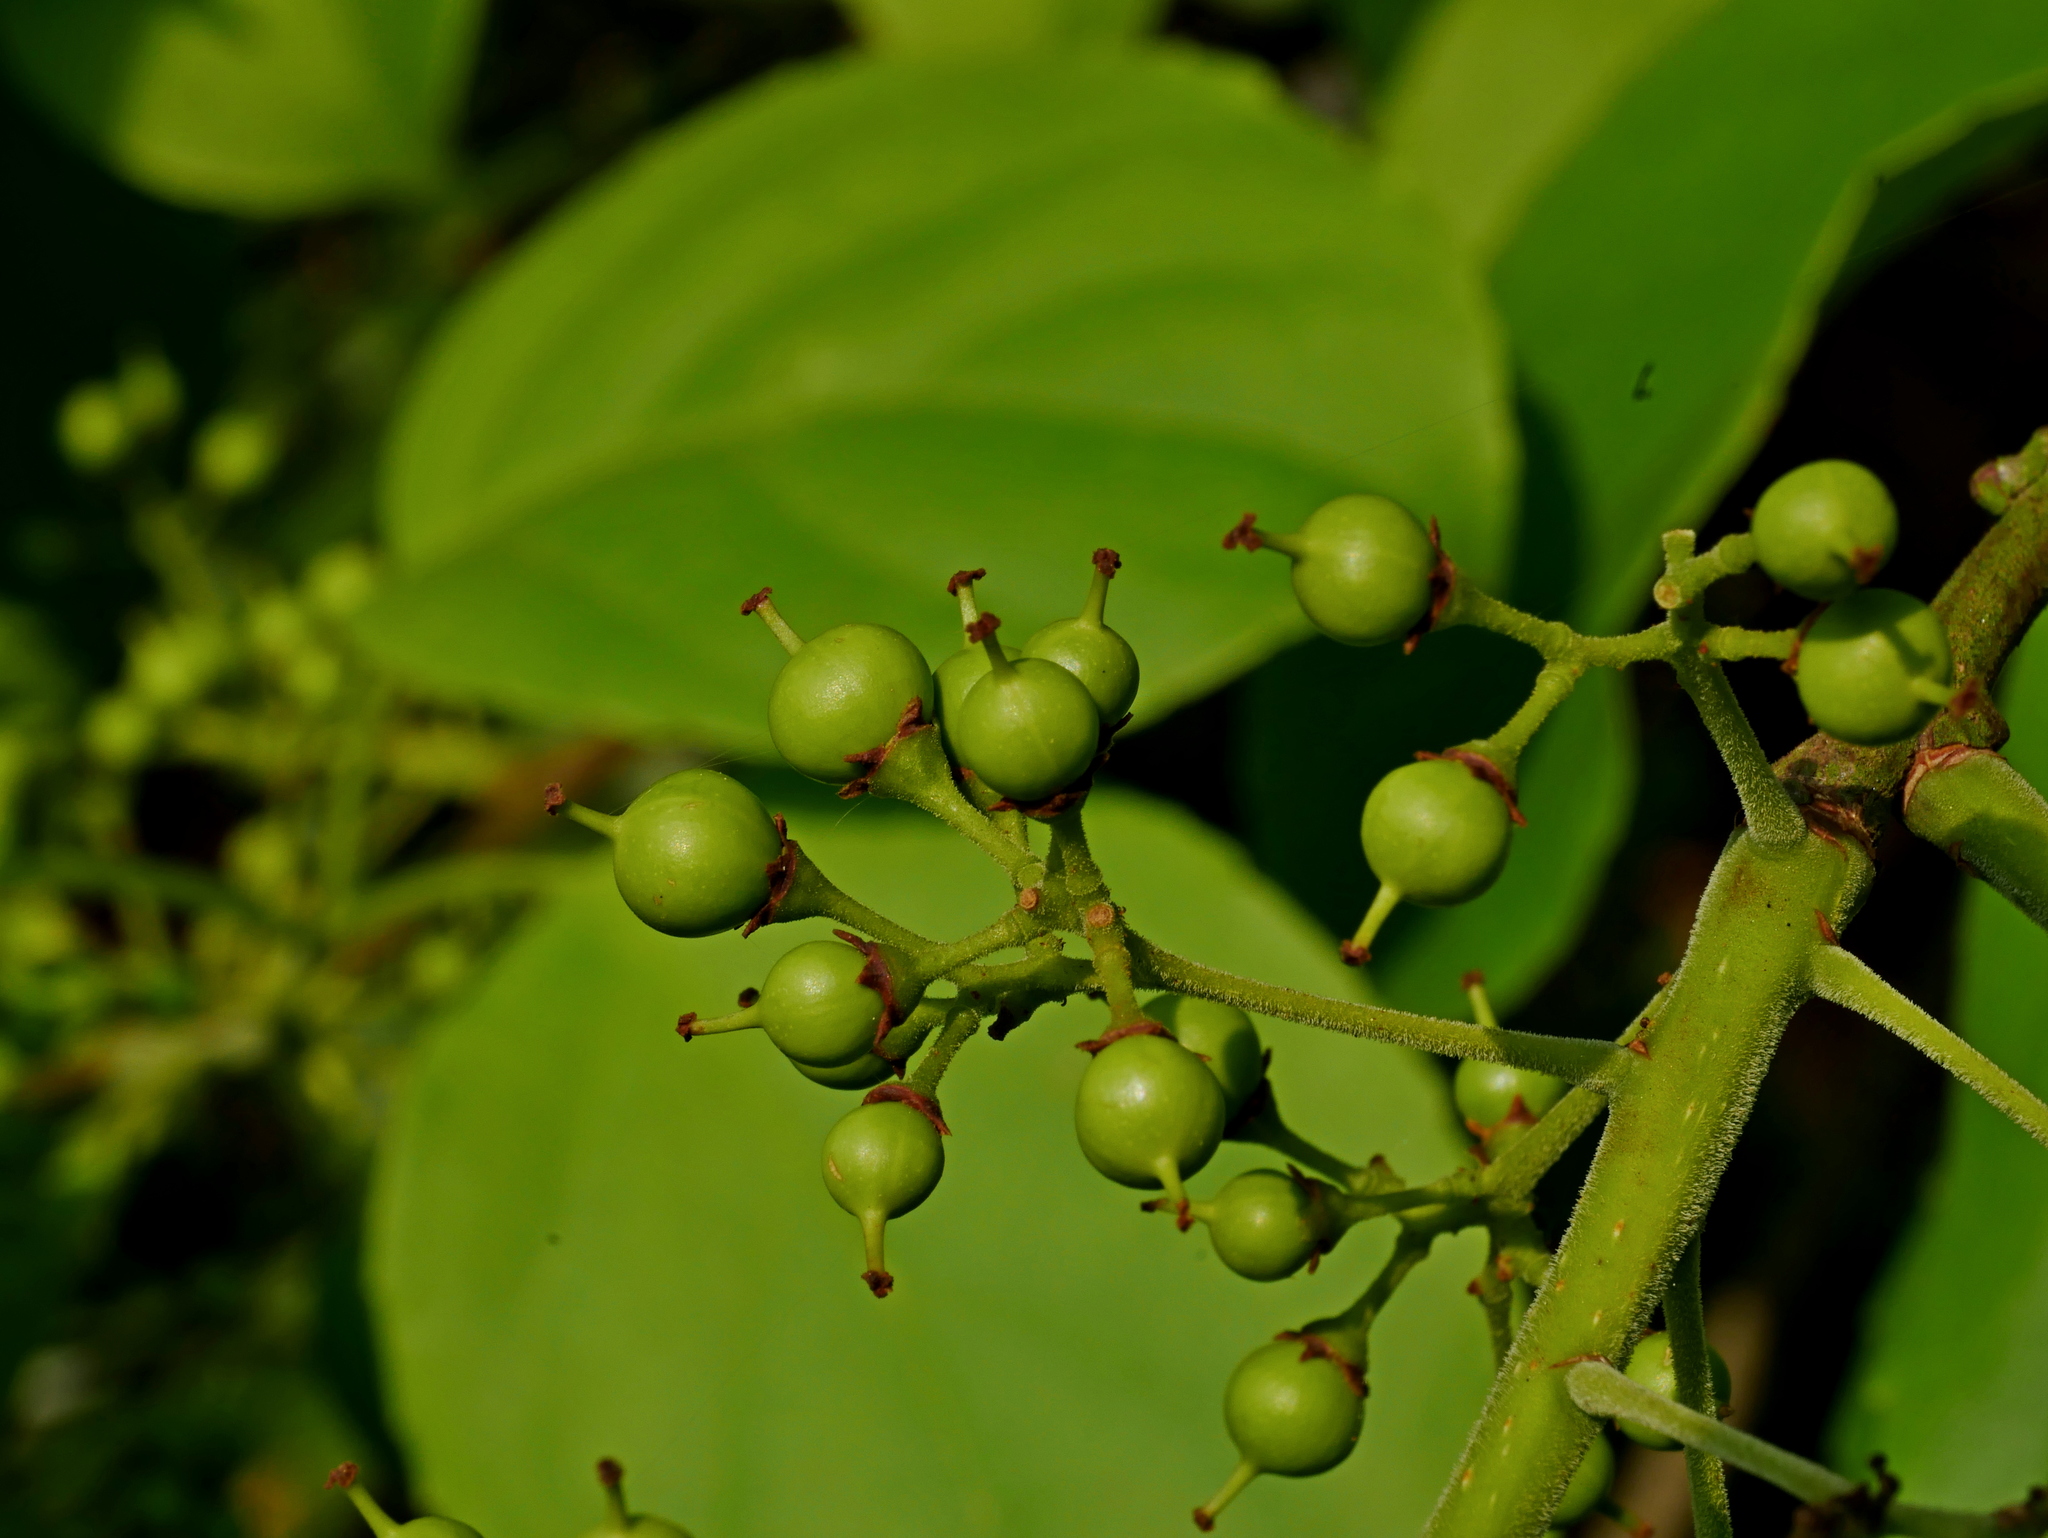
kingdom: Plantae
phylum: Tracheophyta
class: Magnoliopsida
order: Celastrales
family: Celastraceae
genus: Celastrus
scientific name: Celastrus kusanoi
